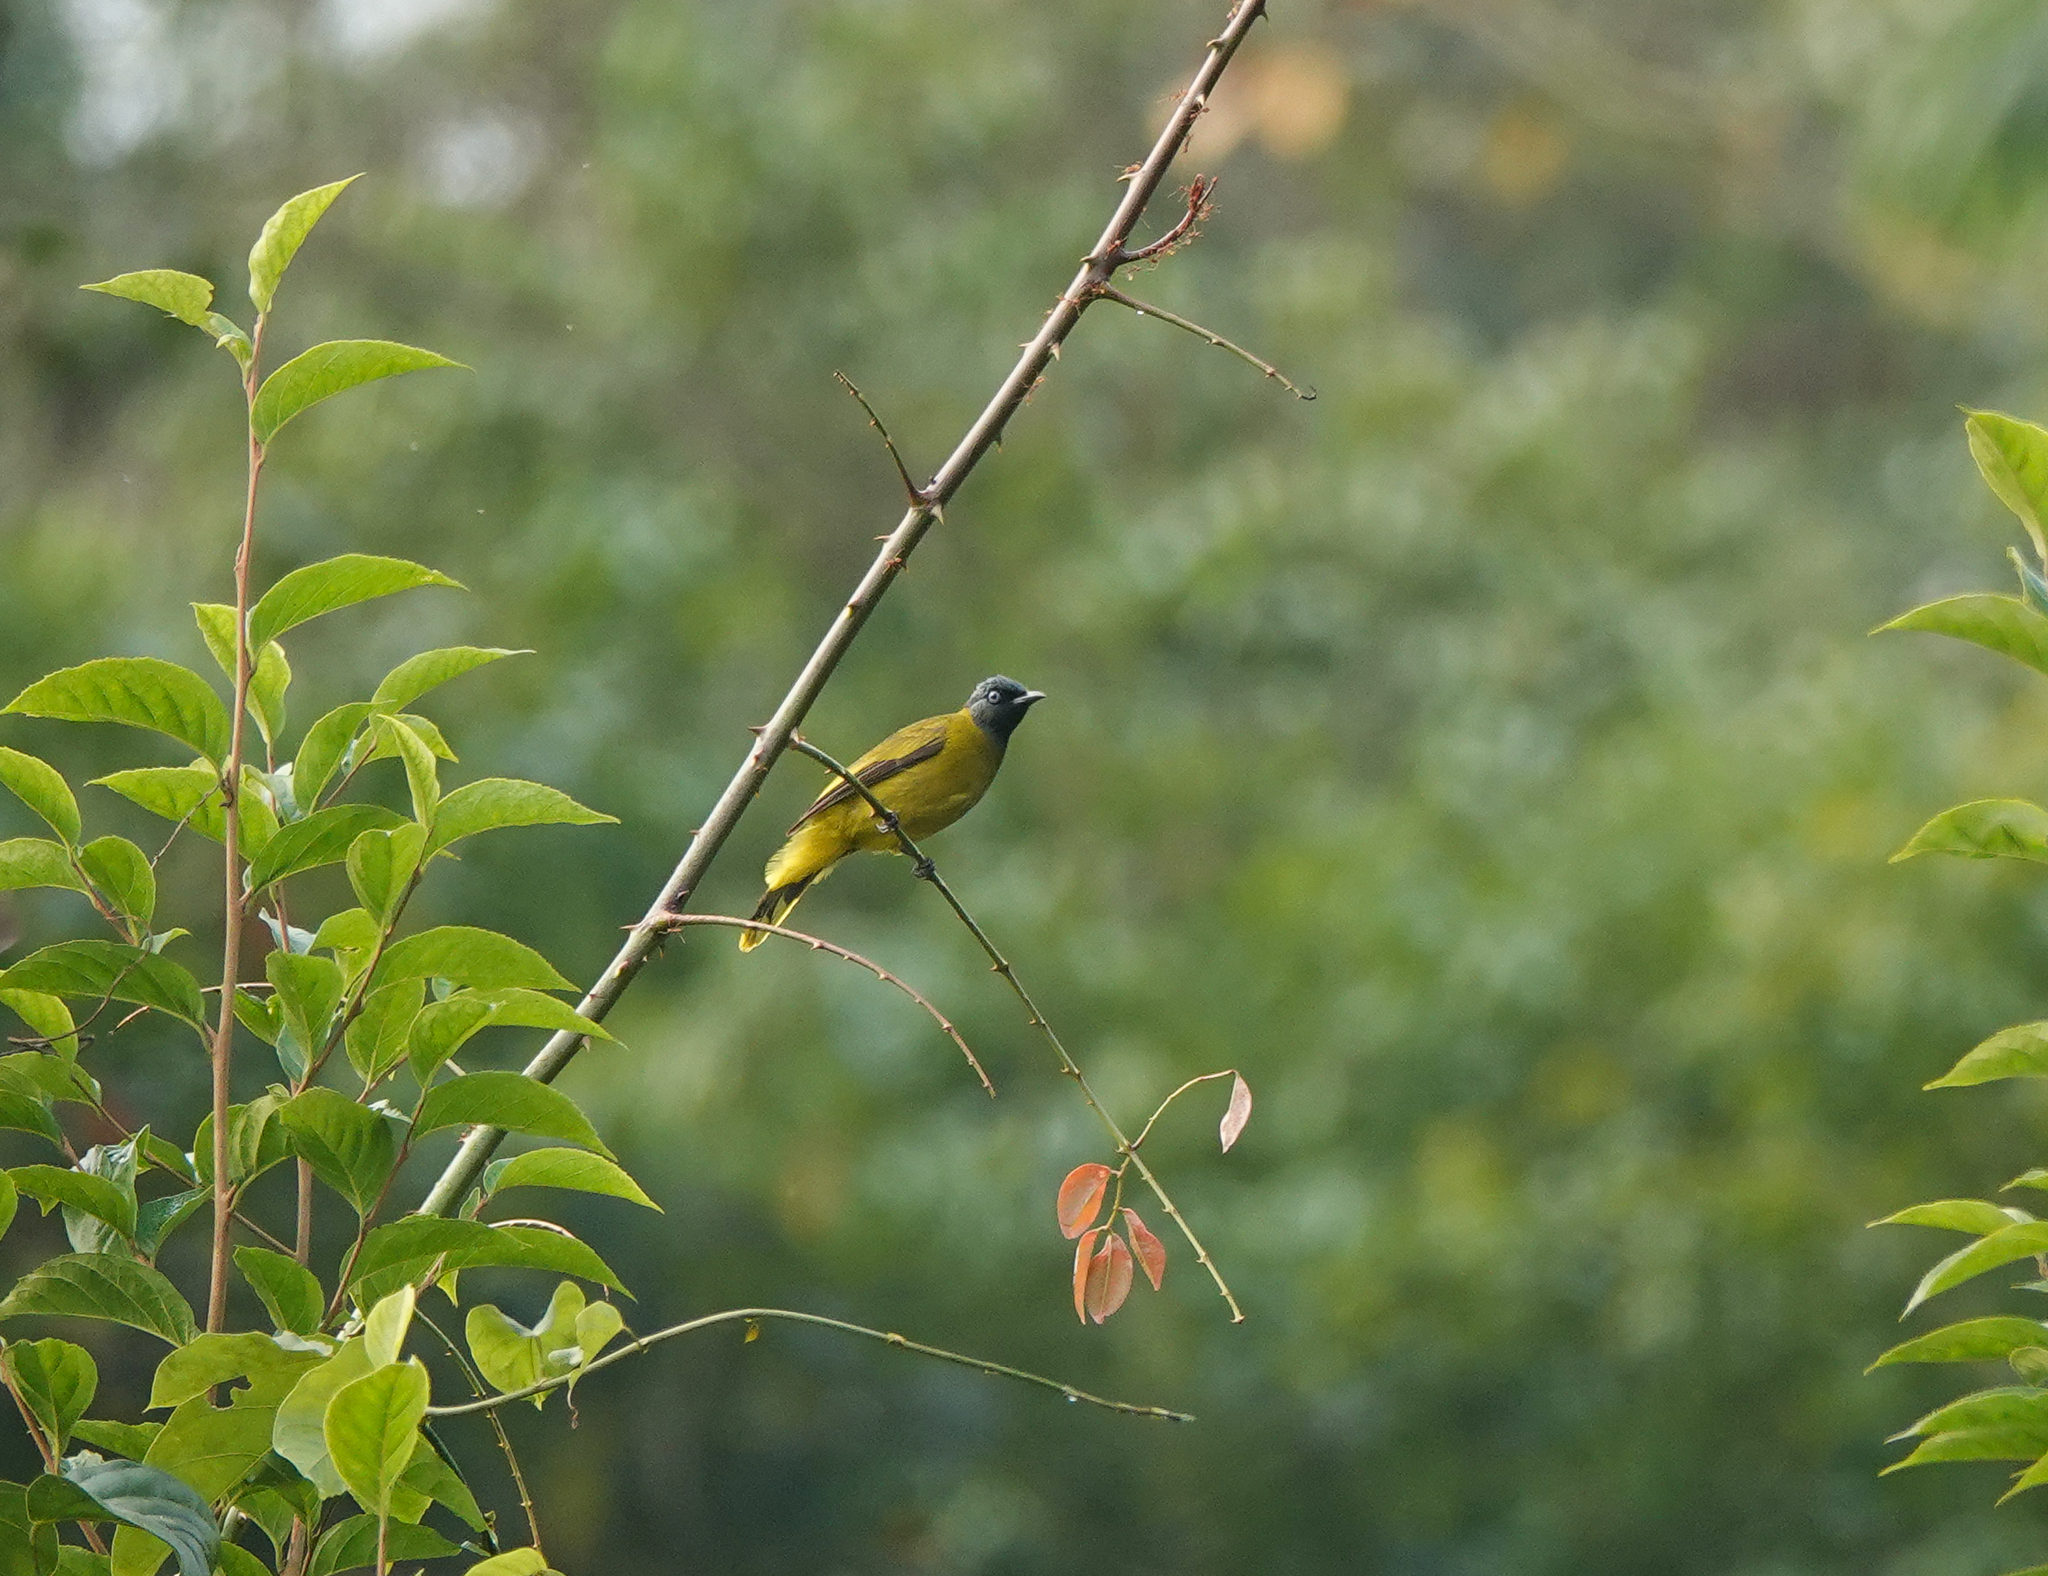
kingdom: Animalia
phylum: Chordata
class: Aves
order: Passeriformes
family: Pycnonotidae
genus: Microtarsus
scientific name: Microtarsus
